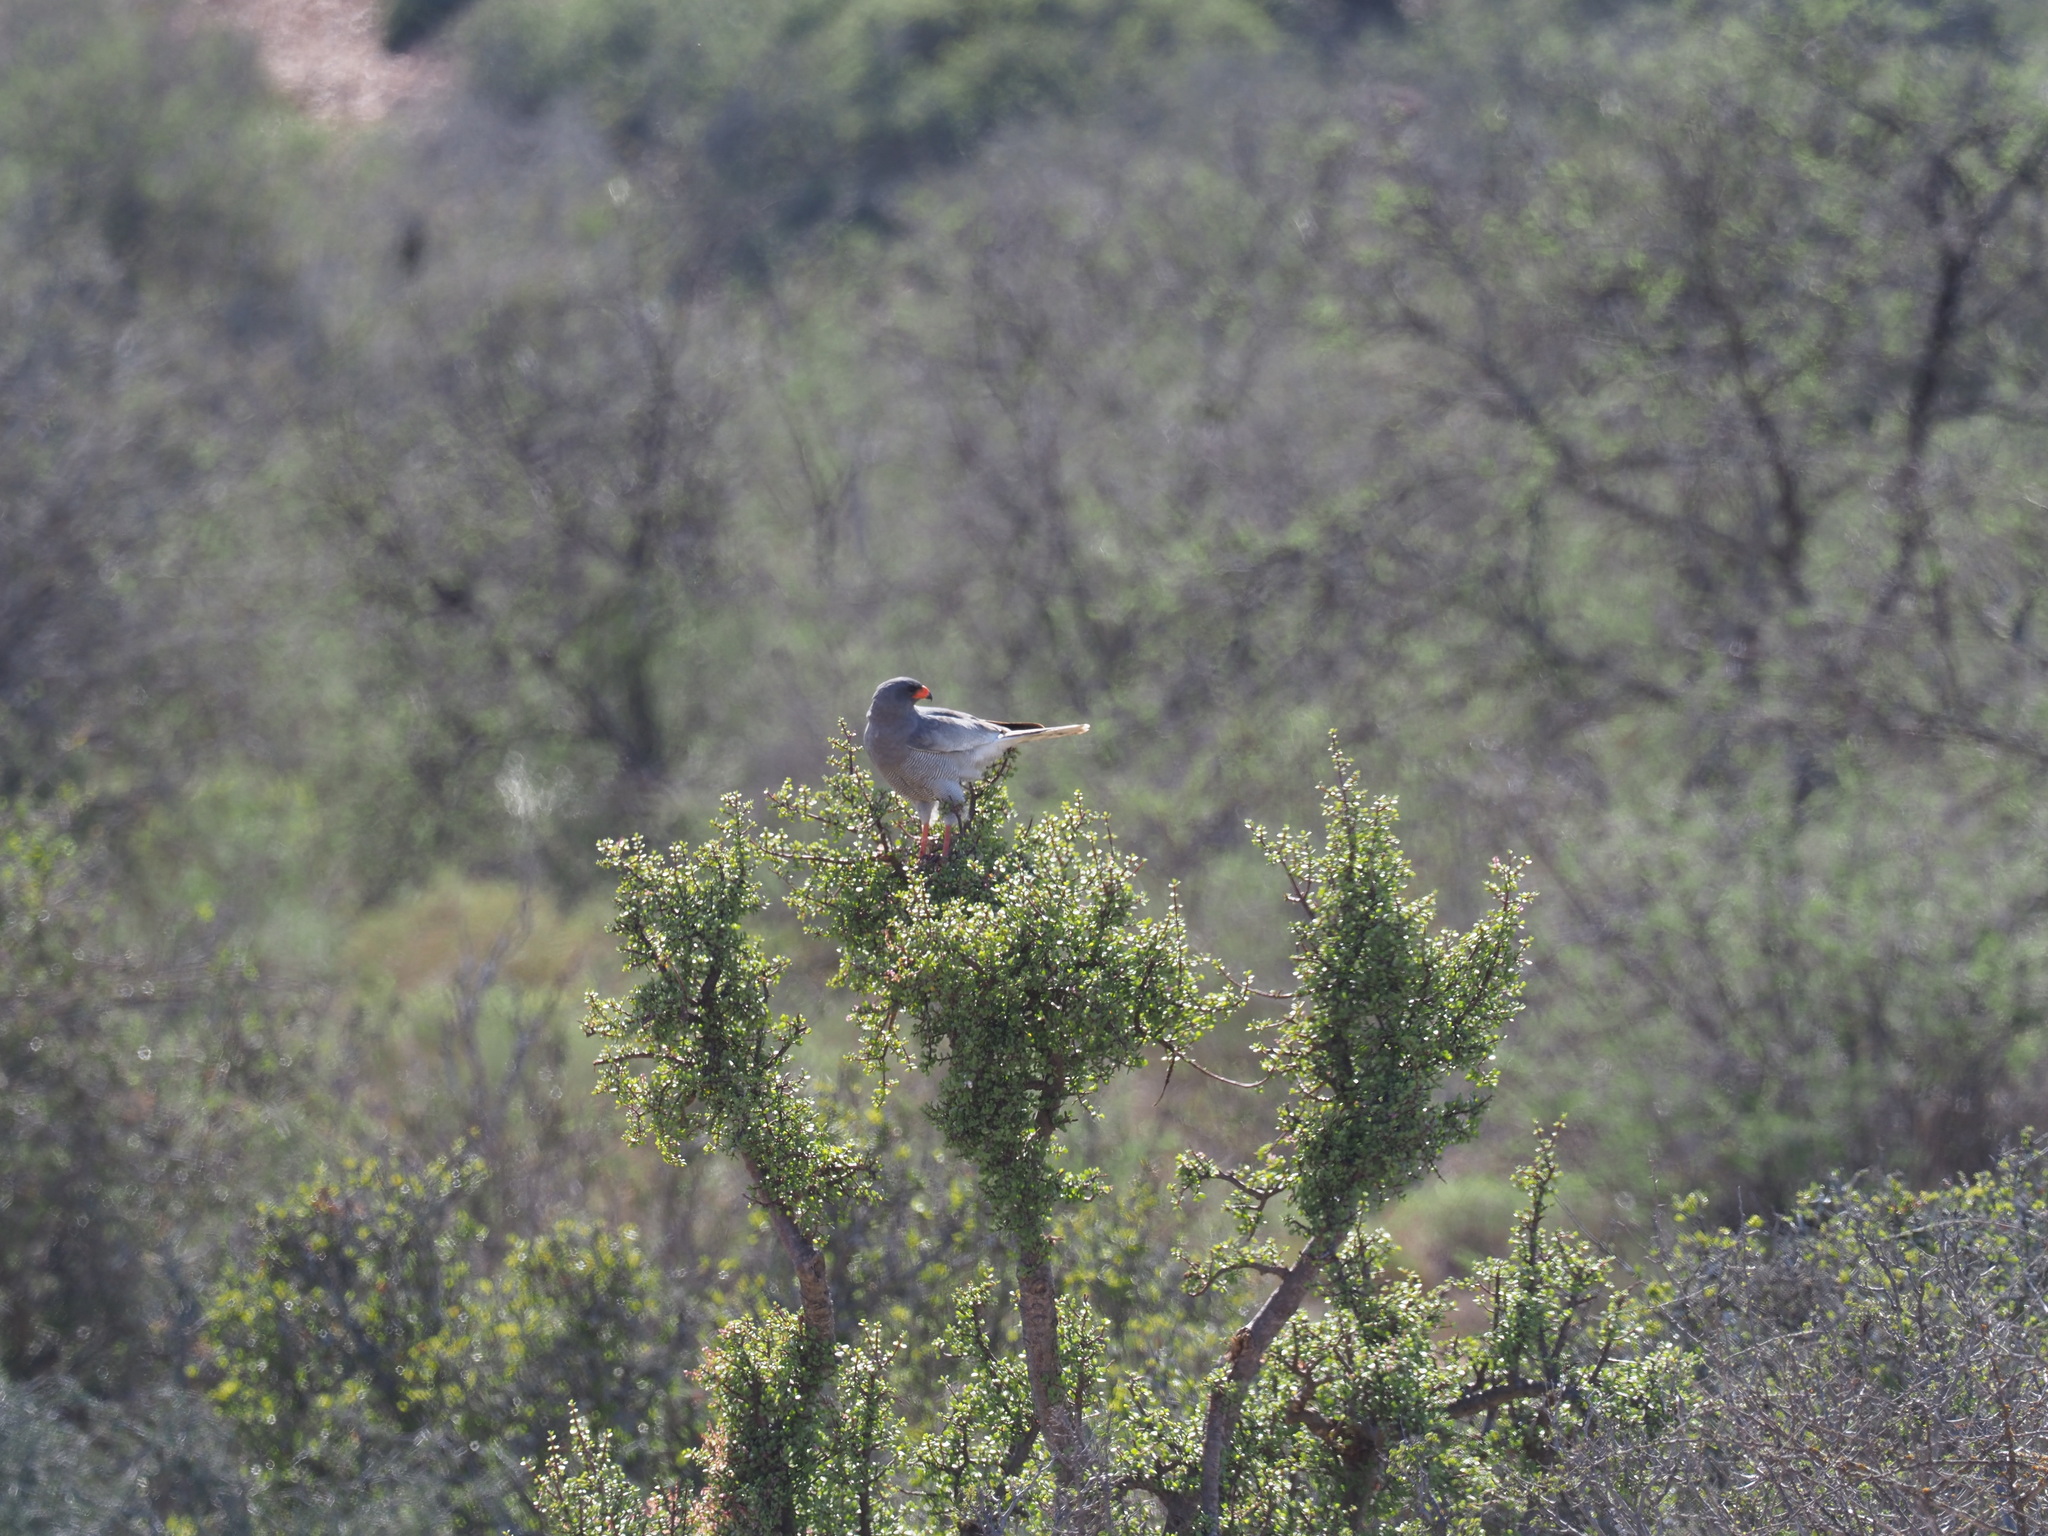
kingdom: Animalia
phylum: Chordata
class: Aves
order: Accipitriformes
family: Accipitridae
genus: Melierax
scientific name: Melierax canorus
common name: Pale chanting-goshawk
